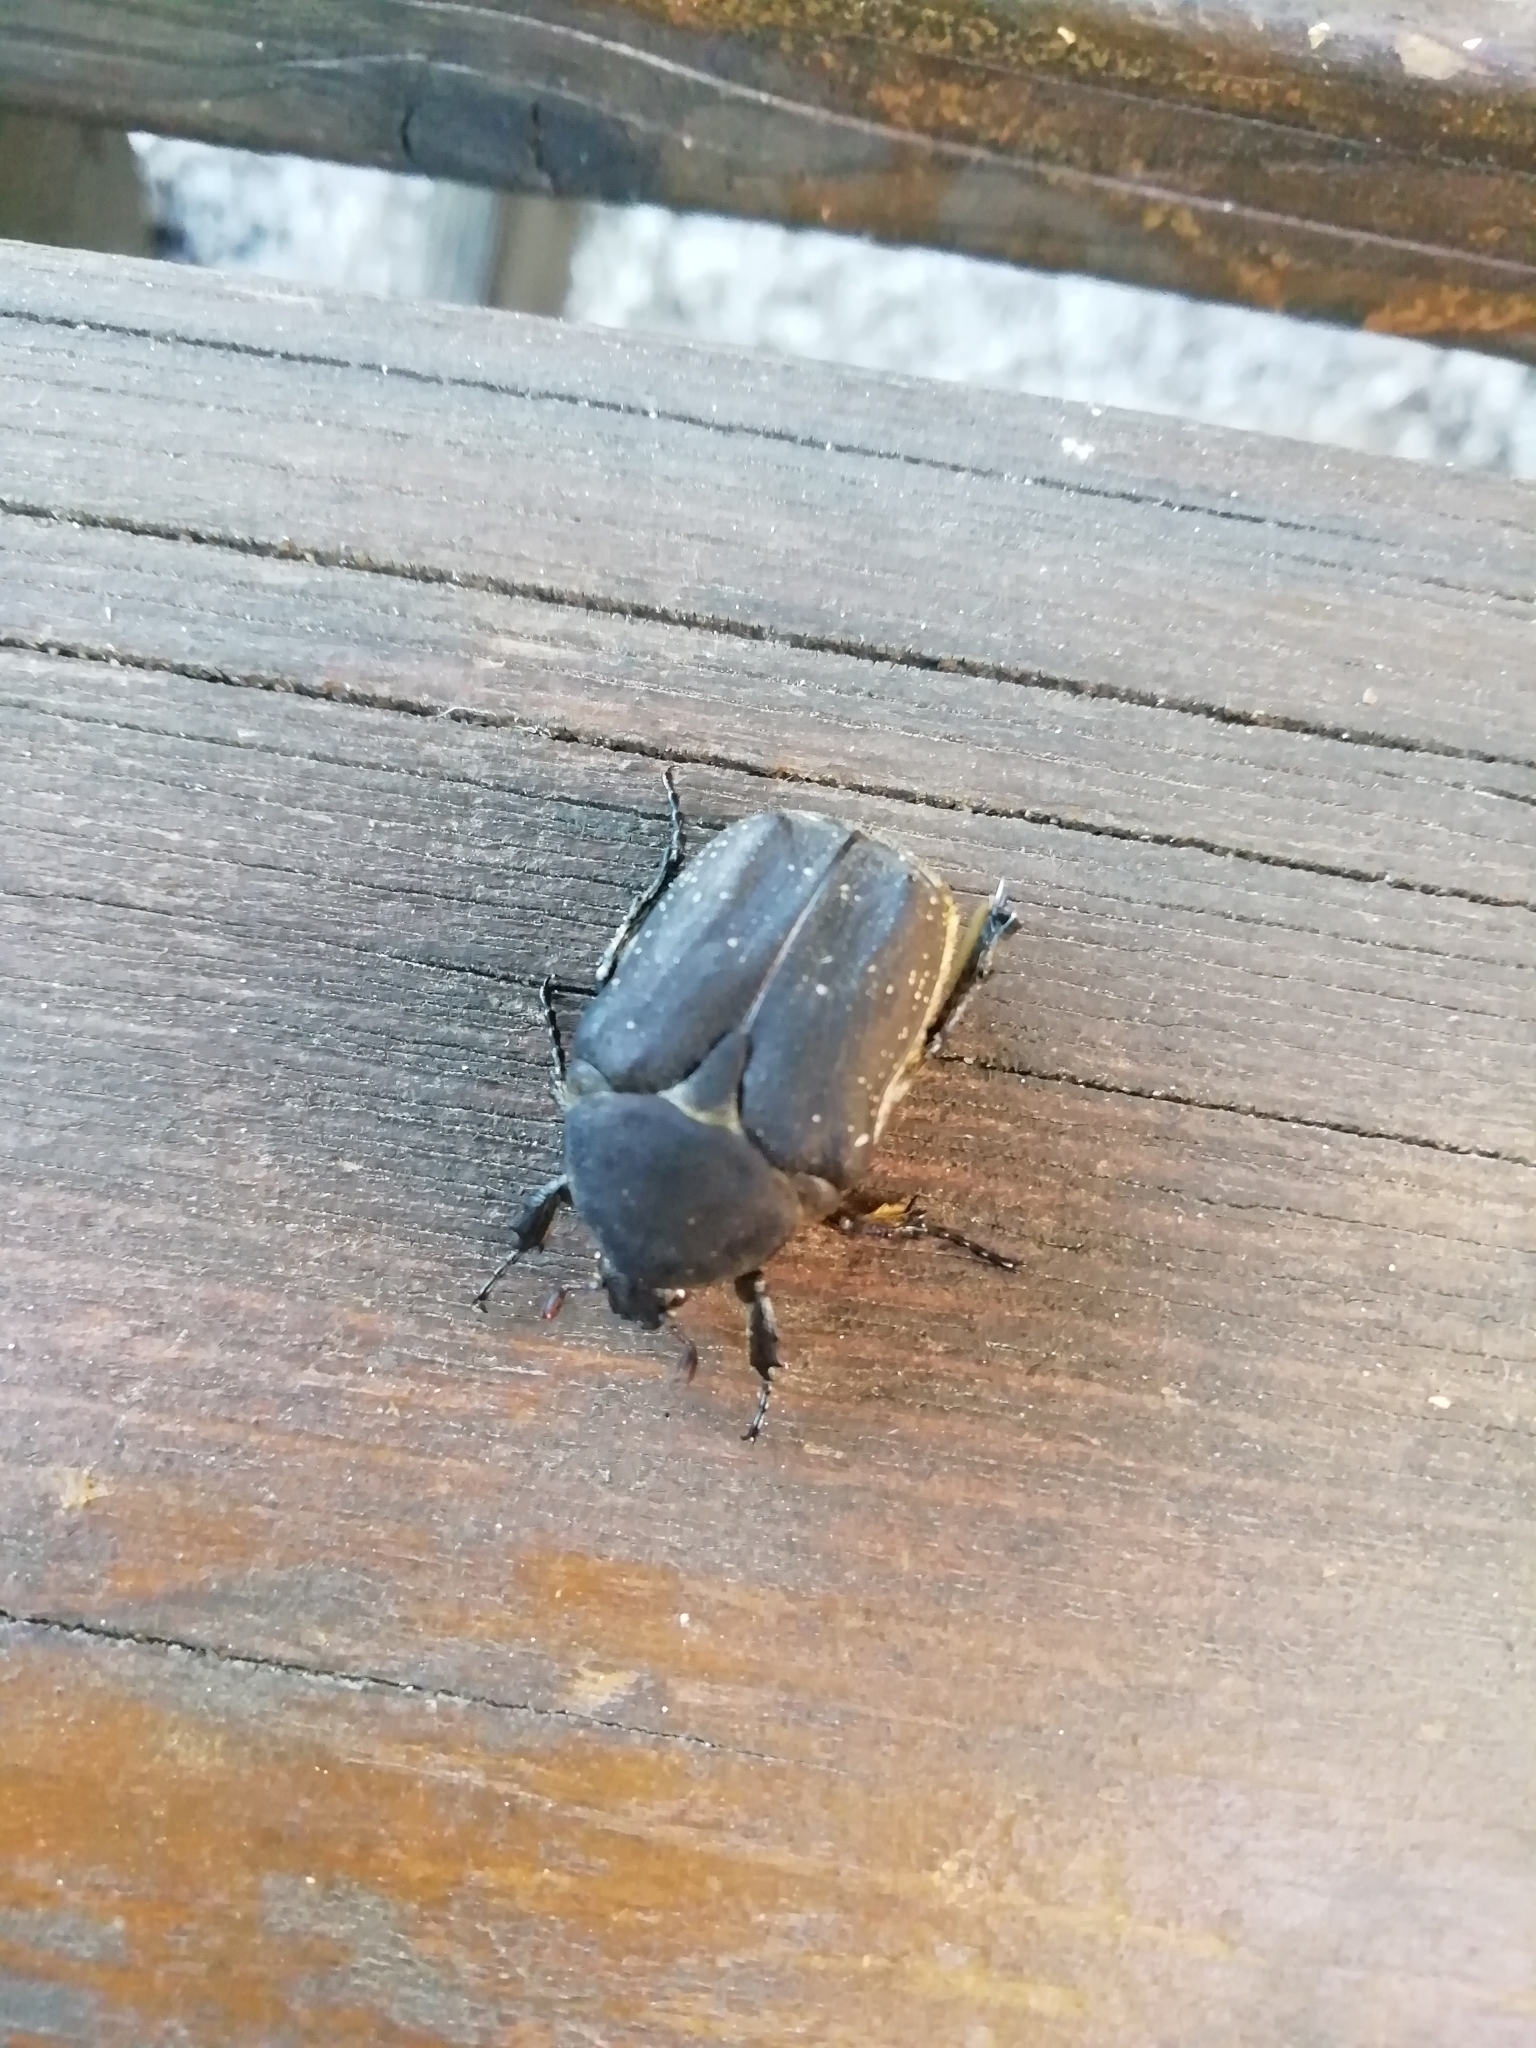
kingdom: Animalia
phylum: Arthropoda
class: Insecta
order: Coleoptera
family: Scarabaeidae
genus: Protaetia
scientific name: Protaetia morio
